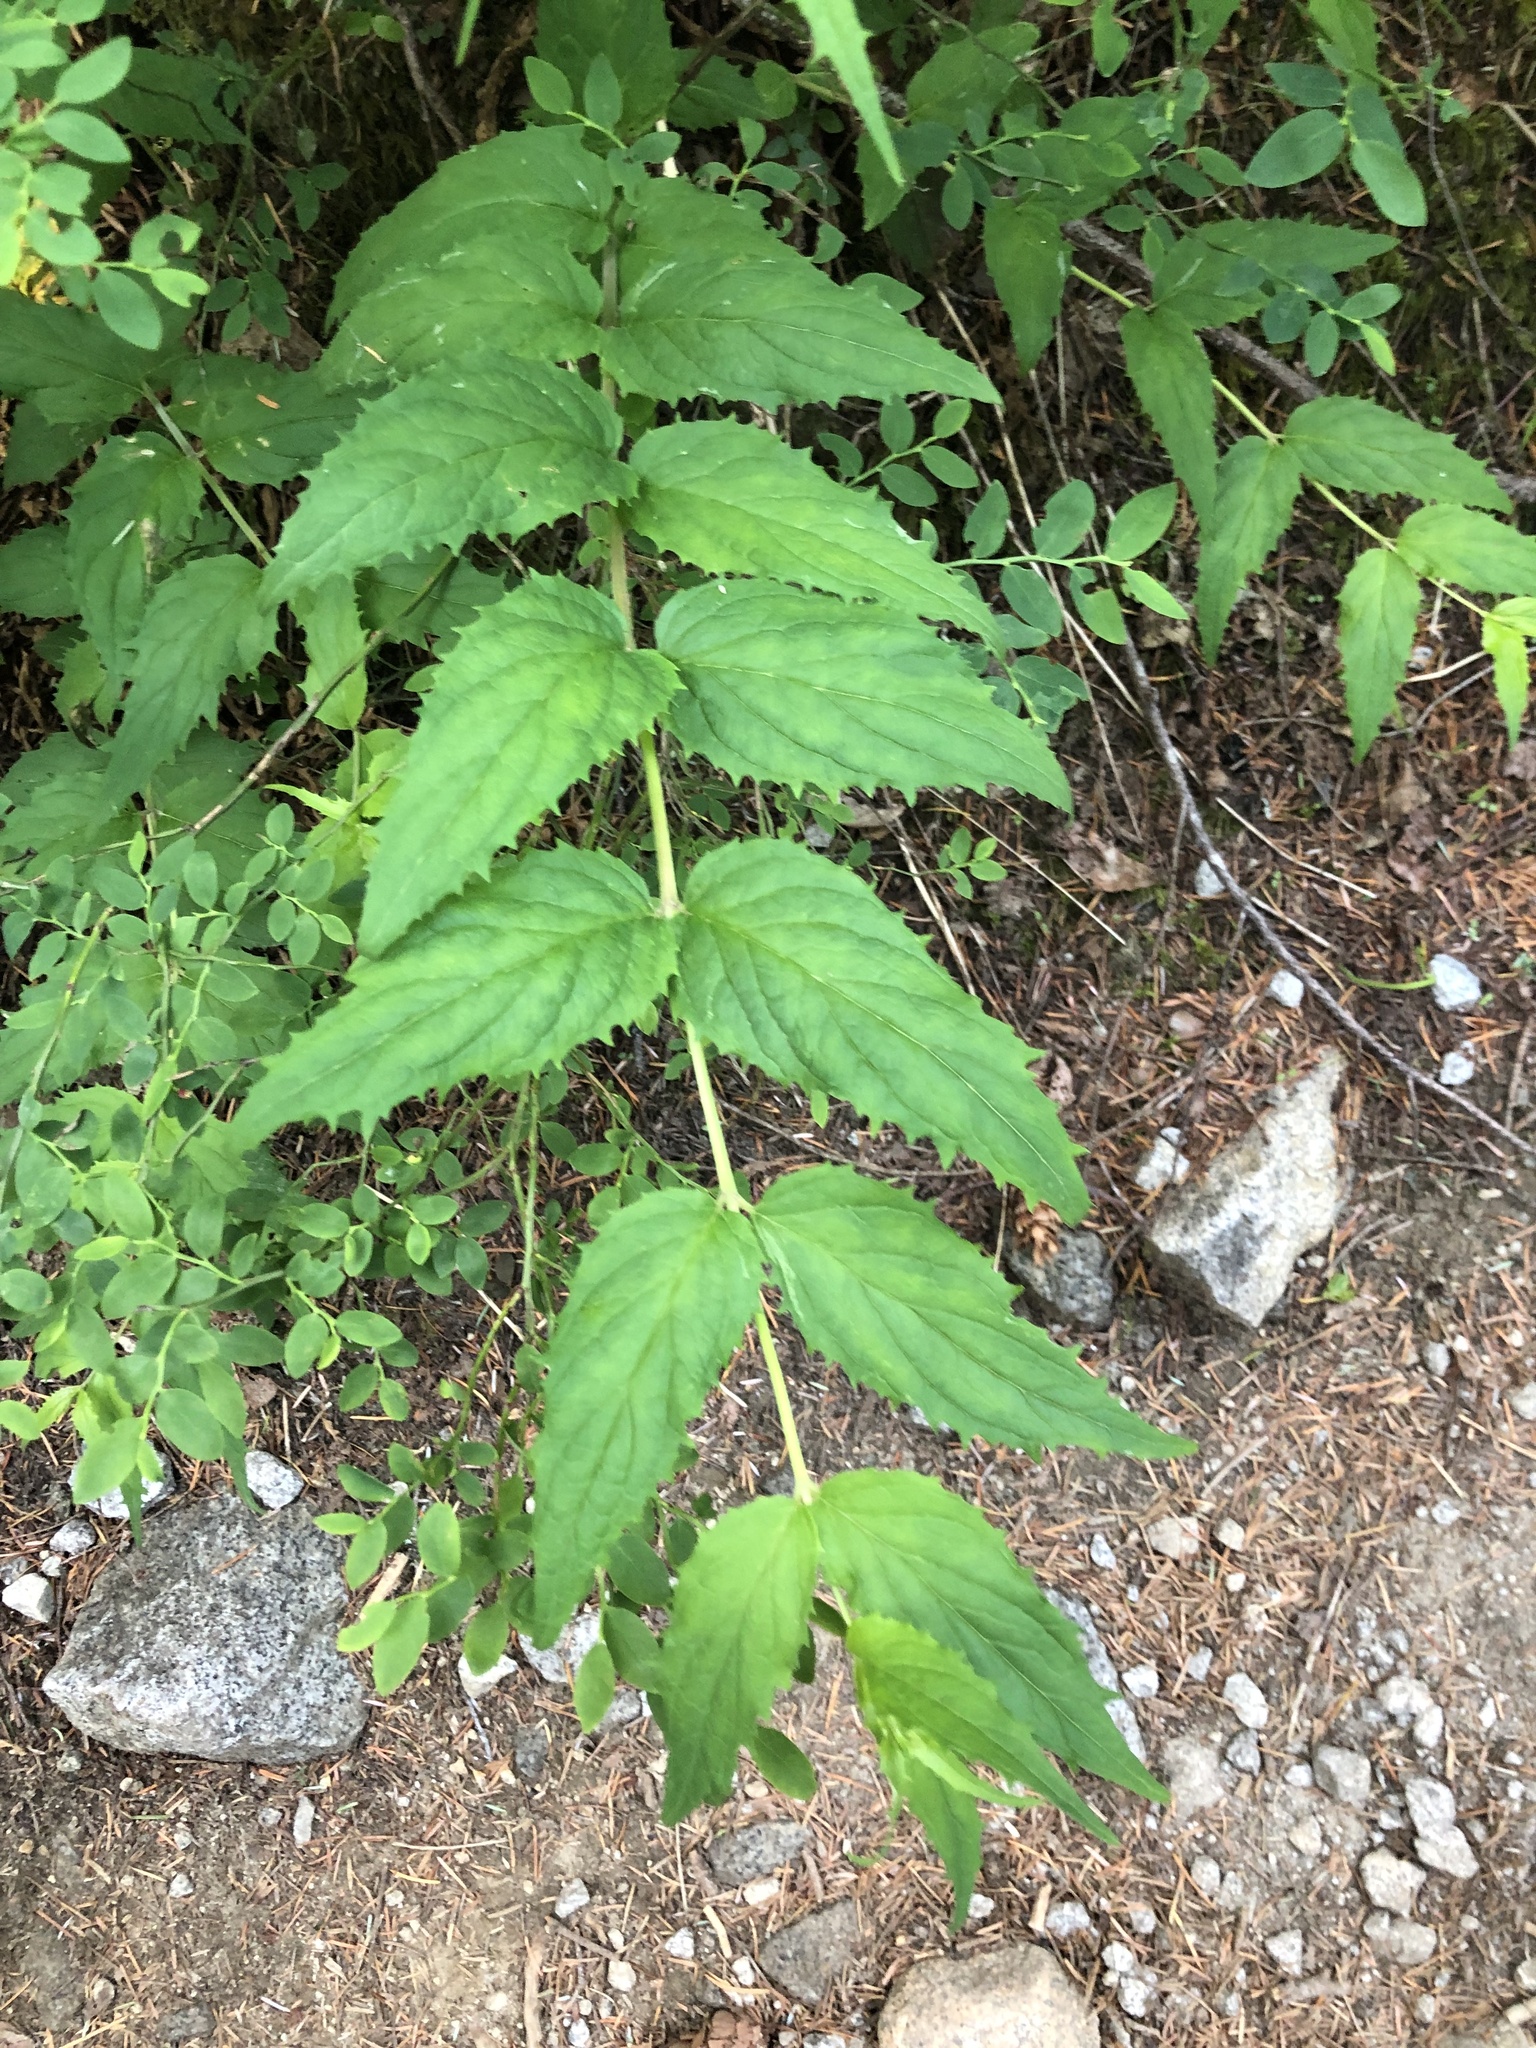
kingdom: Plantae
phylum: Tracheophyta
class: Magnoliopsida
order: Lamiales
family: Plantaginaceae
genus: Nothochelone
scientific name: Nothochelone nemorosa
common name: Woodland beardtongue
